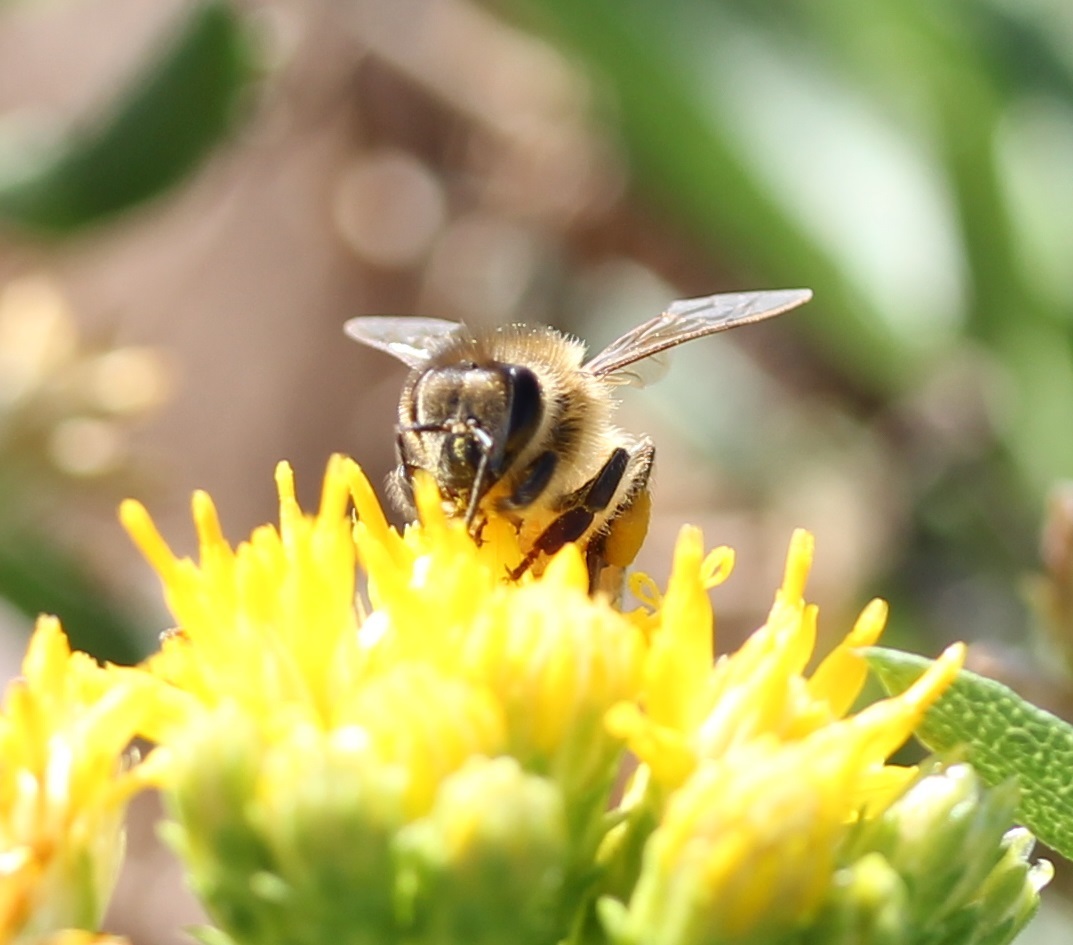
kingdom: Animalia
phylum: Arthropoda
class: Insecta
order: Hymenoptera
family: Apidae
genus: Apis
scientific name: Apis mellifera
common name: Honey bee
